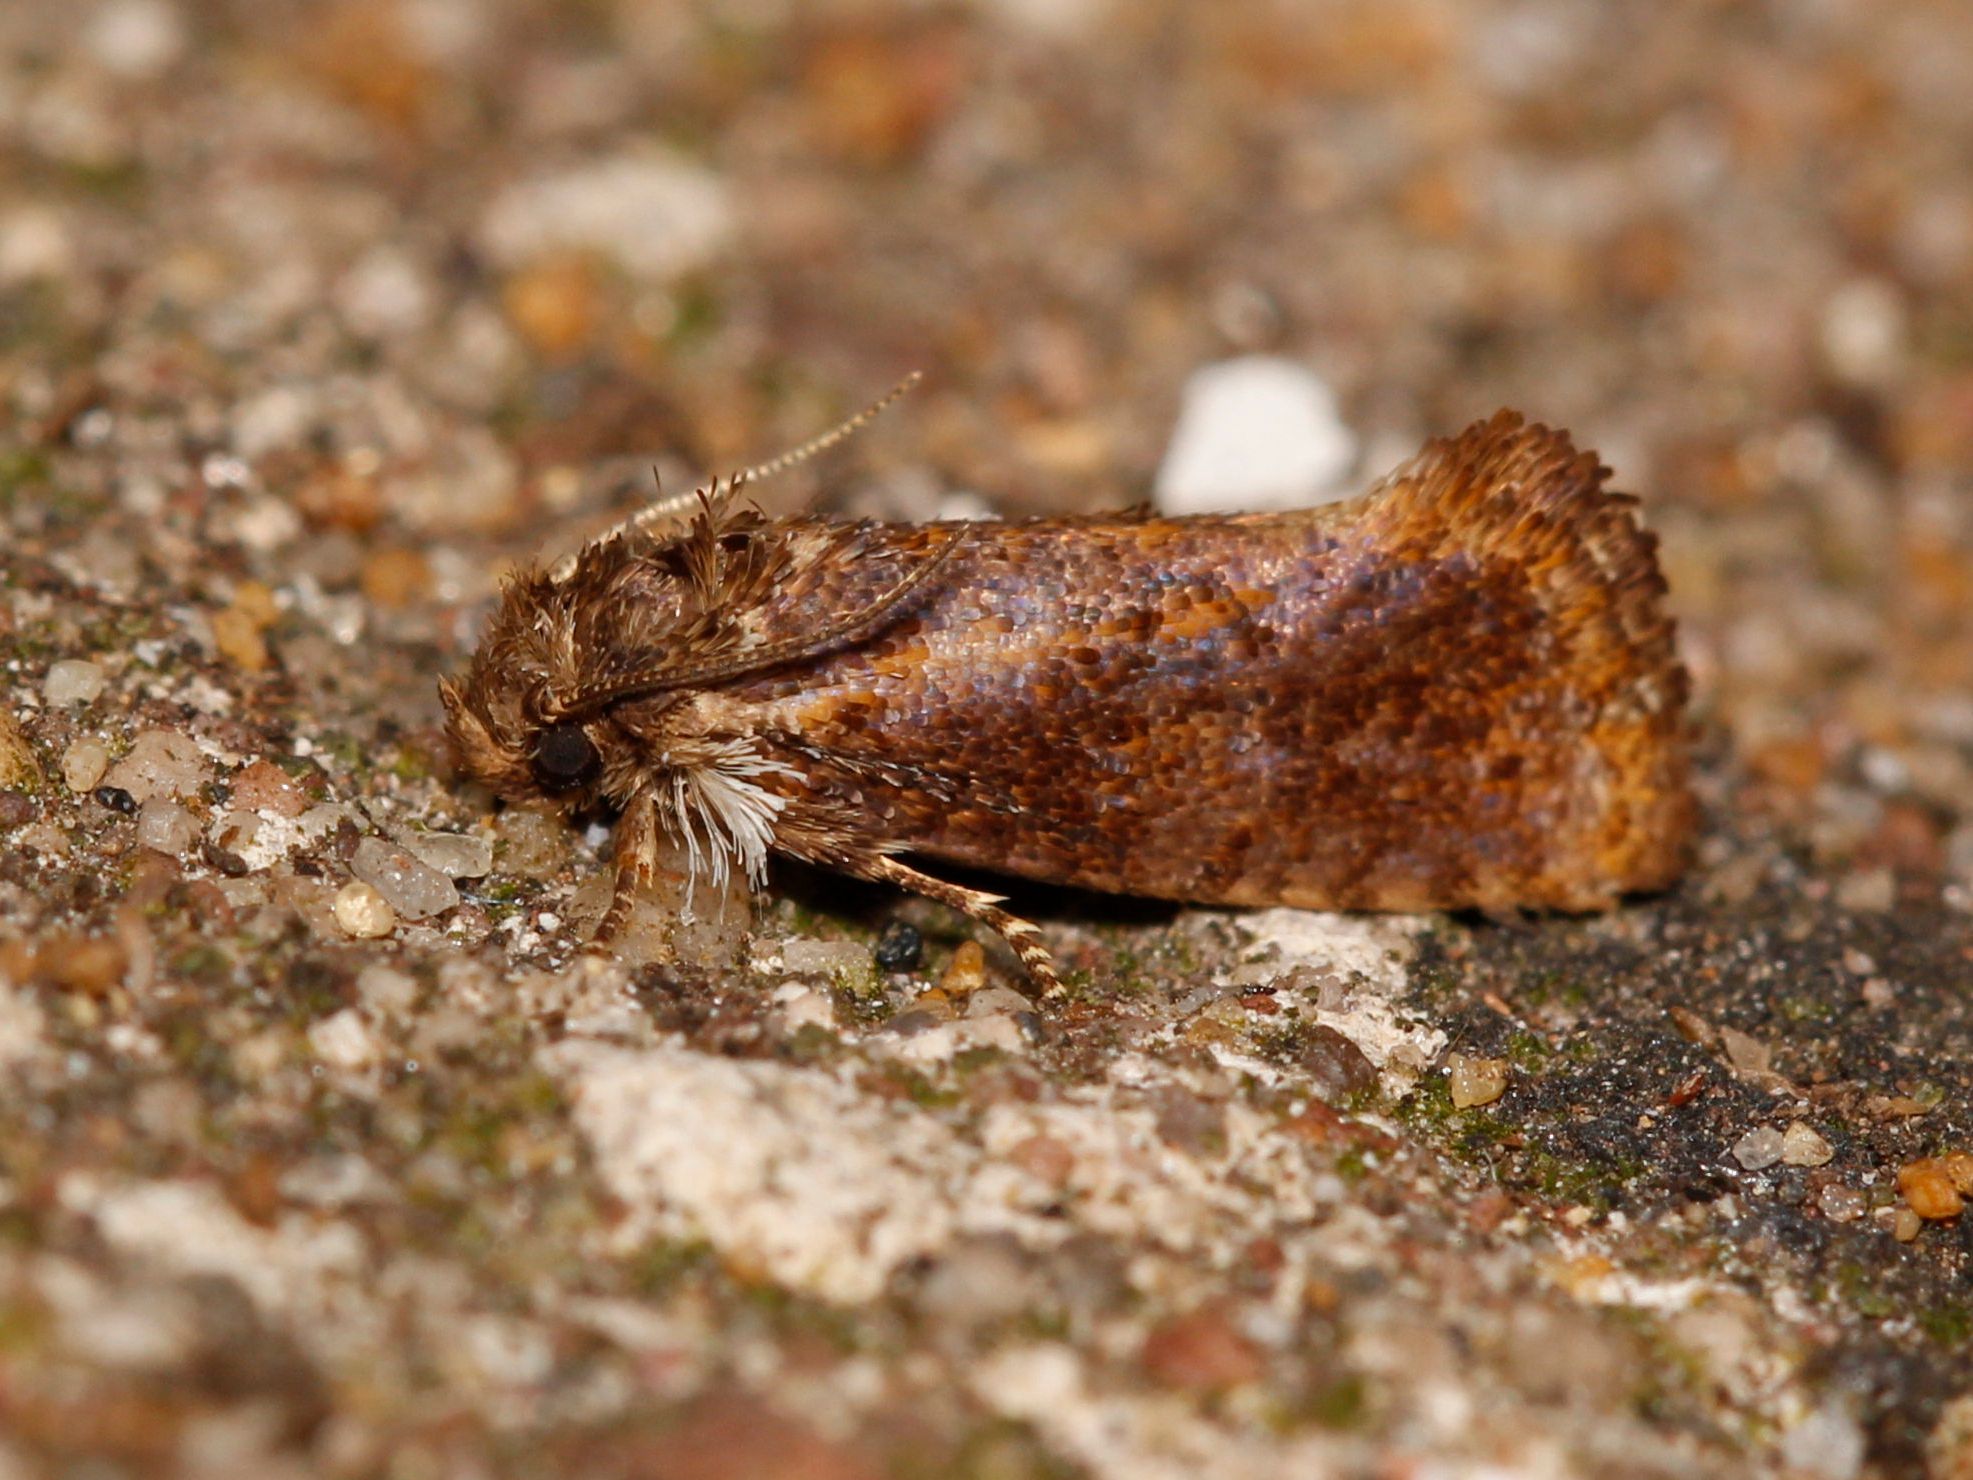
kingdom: Animalia
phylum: Arthropoda
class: Insecta
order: Lepidoptera
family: Tineidae
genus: Acrolophus
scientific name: Acrolophus panamae
